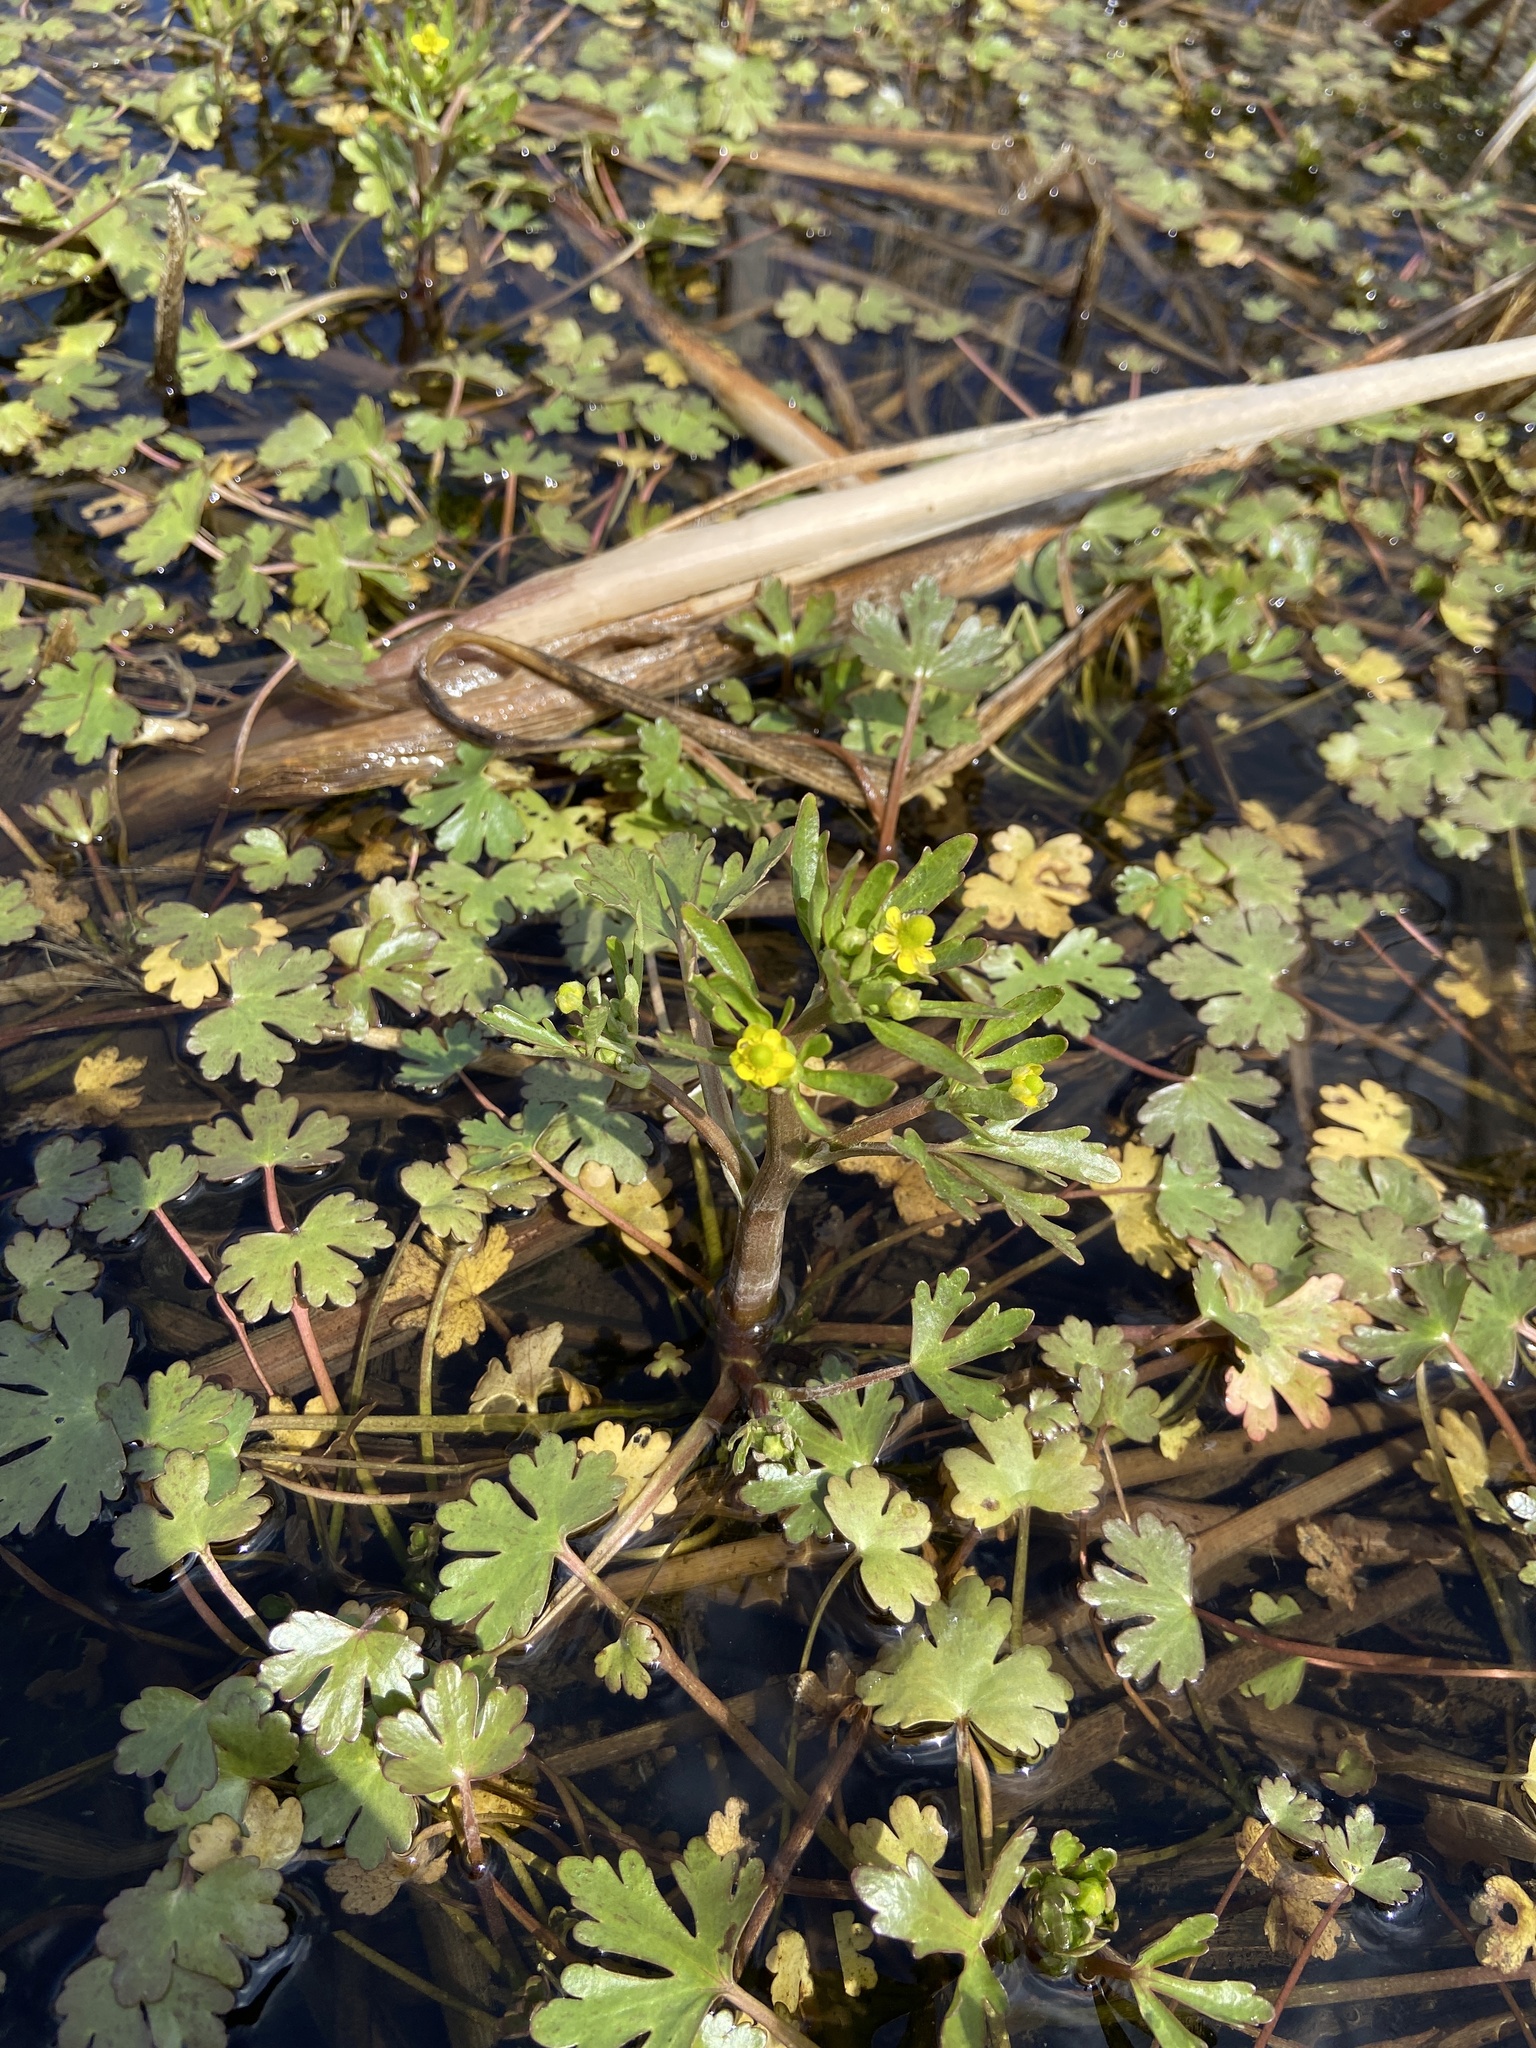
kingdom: Plantae
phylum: Tracheophyta
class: Magnoliopsida
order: Ranunculales
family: Ranunculaceae
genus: Ranunculus
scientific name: Ranunculus sceleratus
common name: Celery-leaved buttercup
